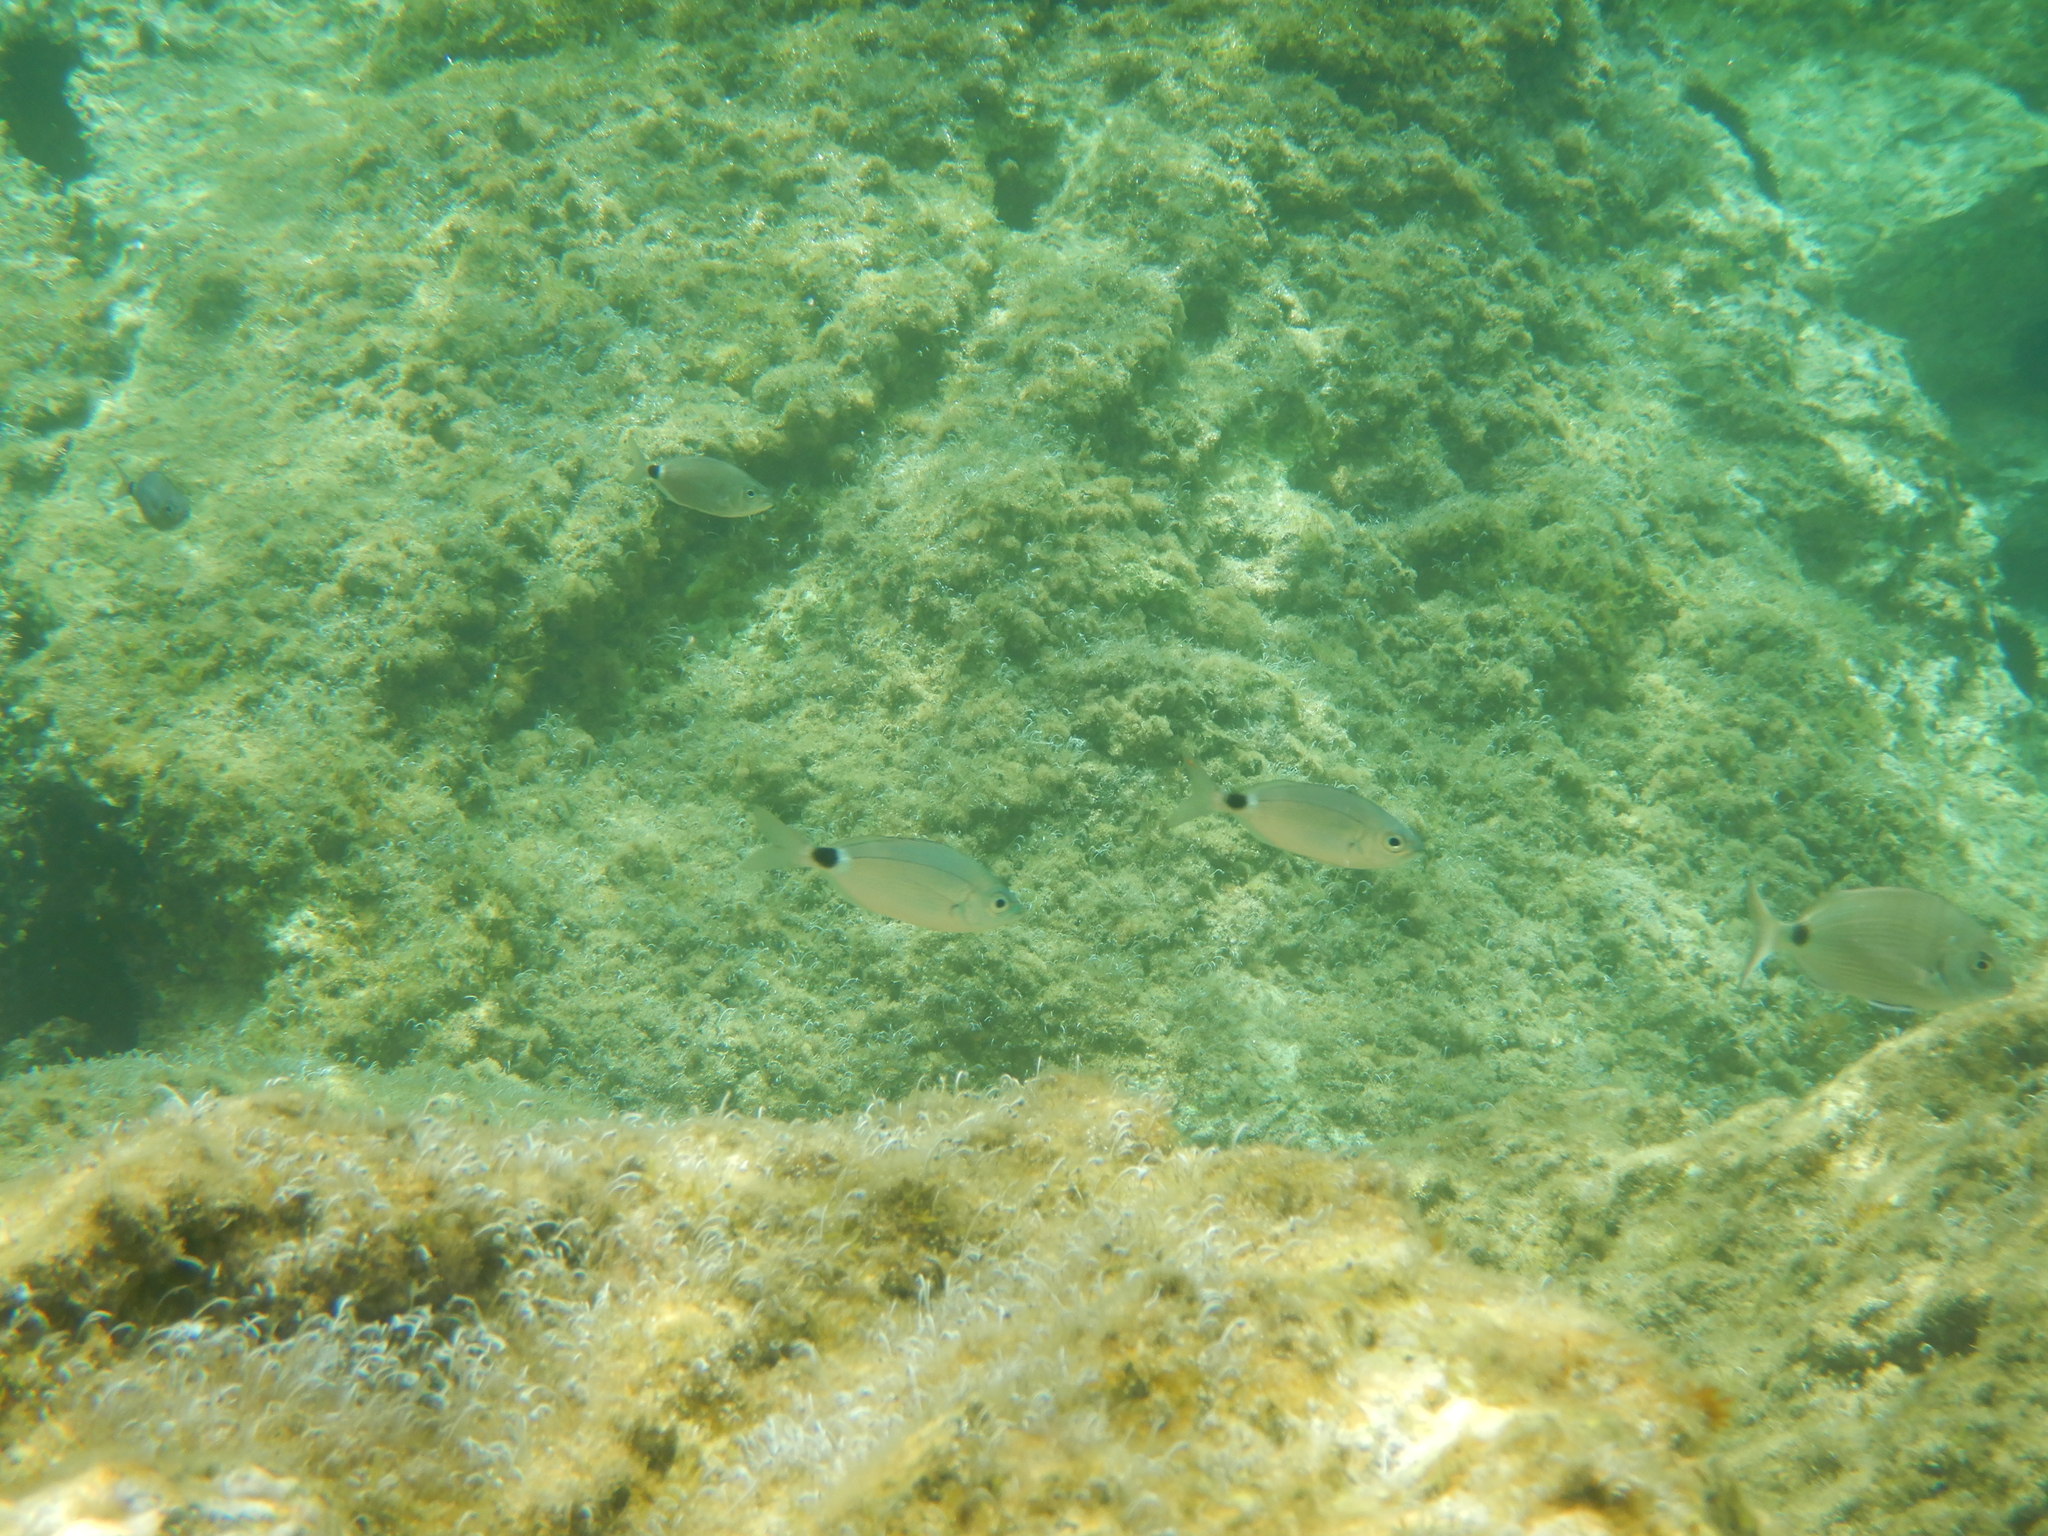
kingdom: Animalia
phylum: Chordata
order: Perciformes
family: Sparidae
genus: Oblada
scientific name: Oblada melanura
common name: Saddled seabream
